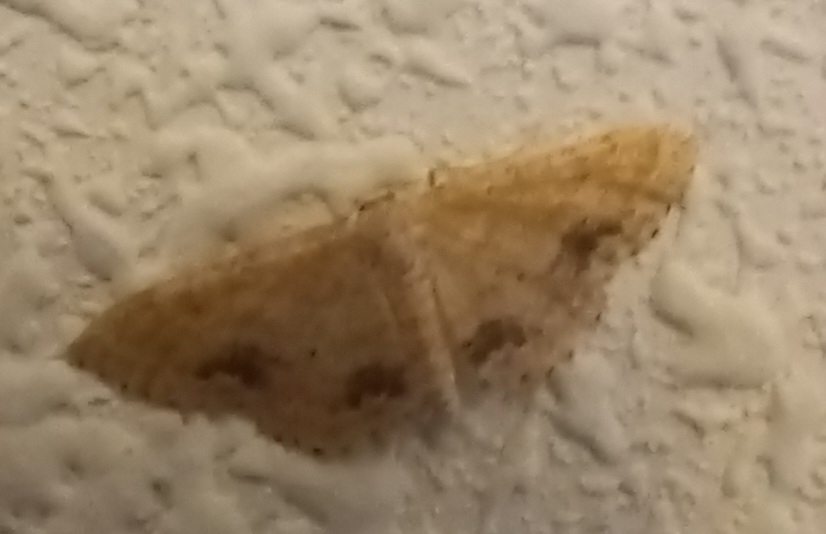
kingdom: Animalia
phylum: Arthropoda
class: Insecta
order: Lepidoptera
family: Geometridae
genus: Idaea
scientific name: Idaea belemiata
